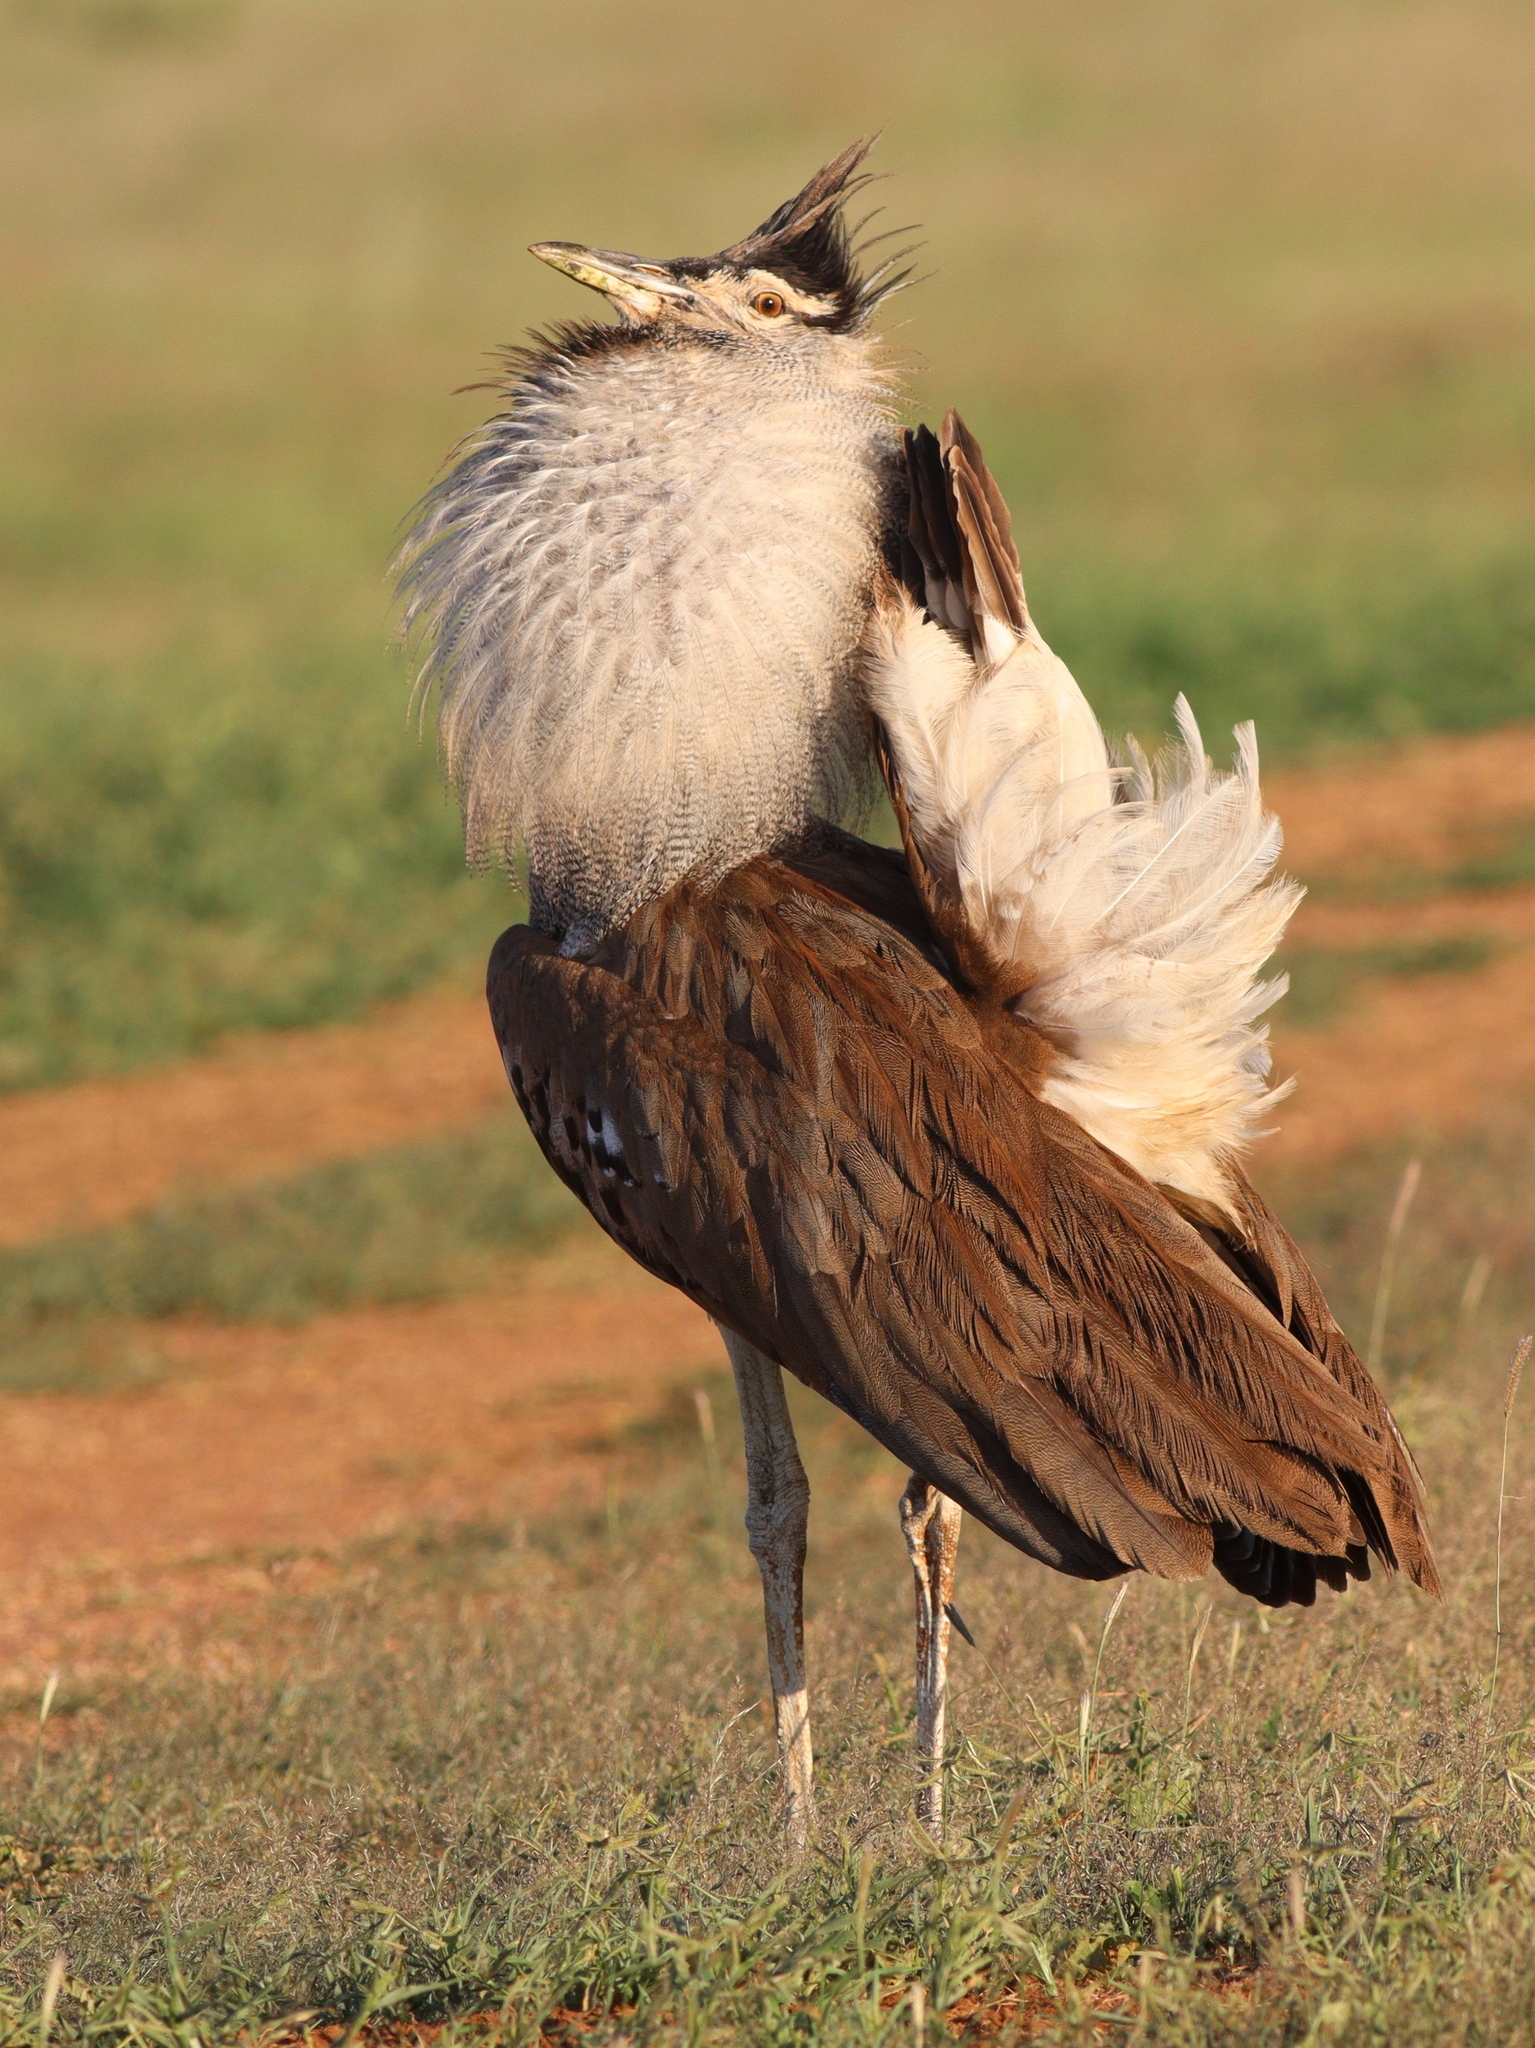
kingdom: Animalia
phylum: Chordata
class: Aves
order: Otidiformes
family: Otididae
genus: Ardeotis
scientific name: Ardeotis kori
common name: Kori bustard
